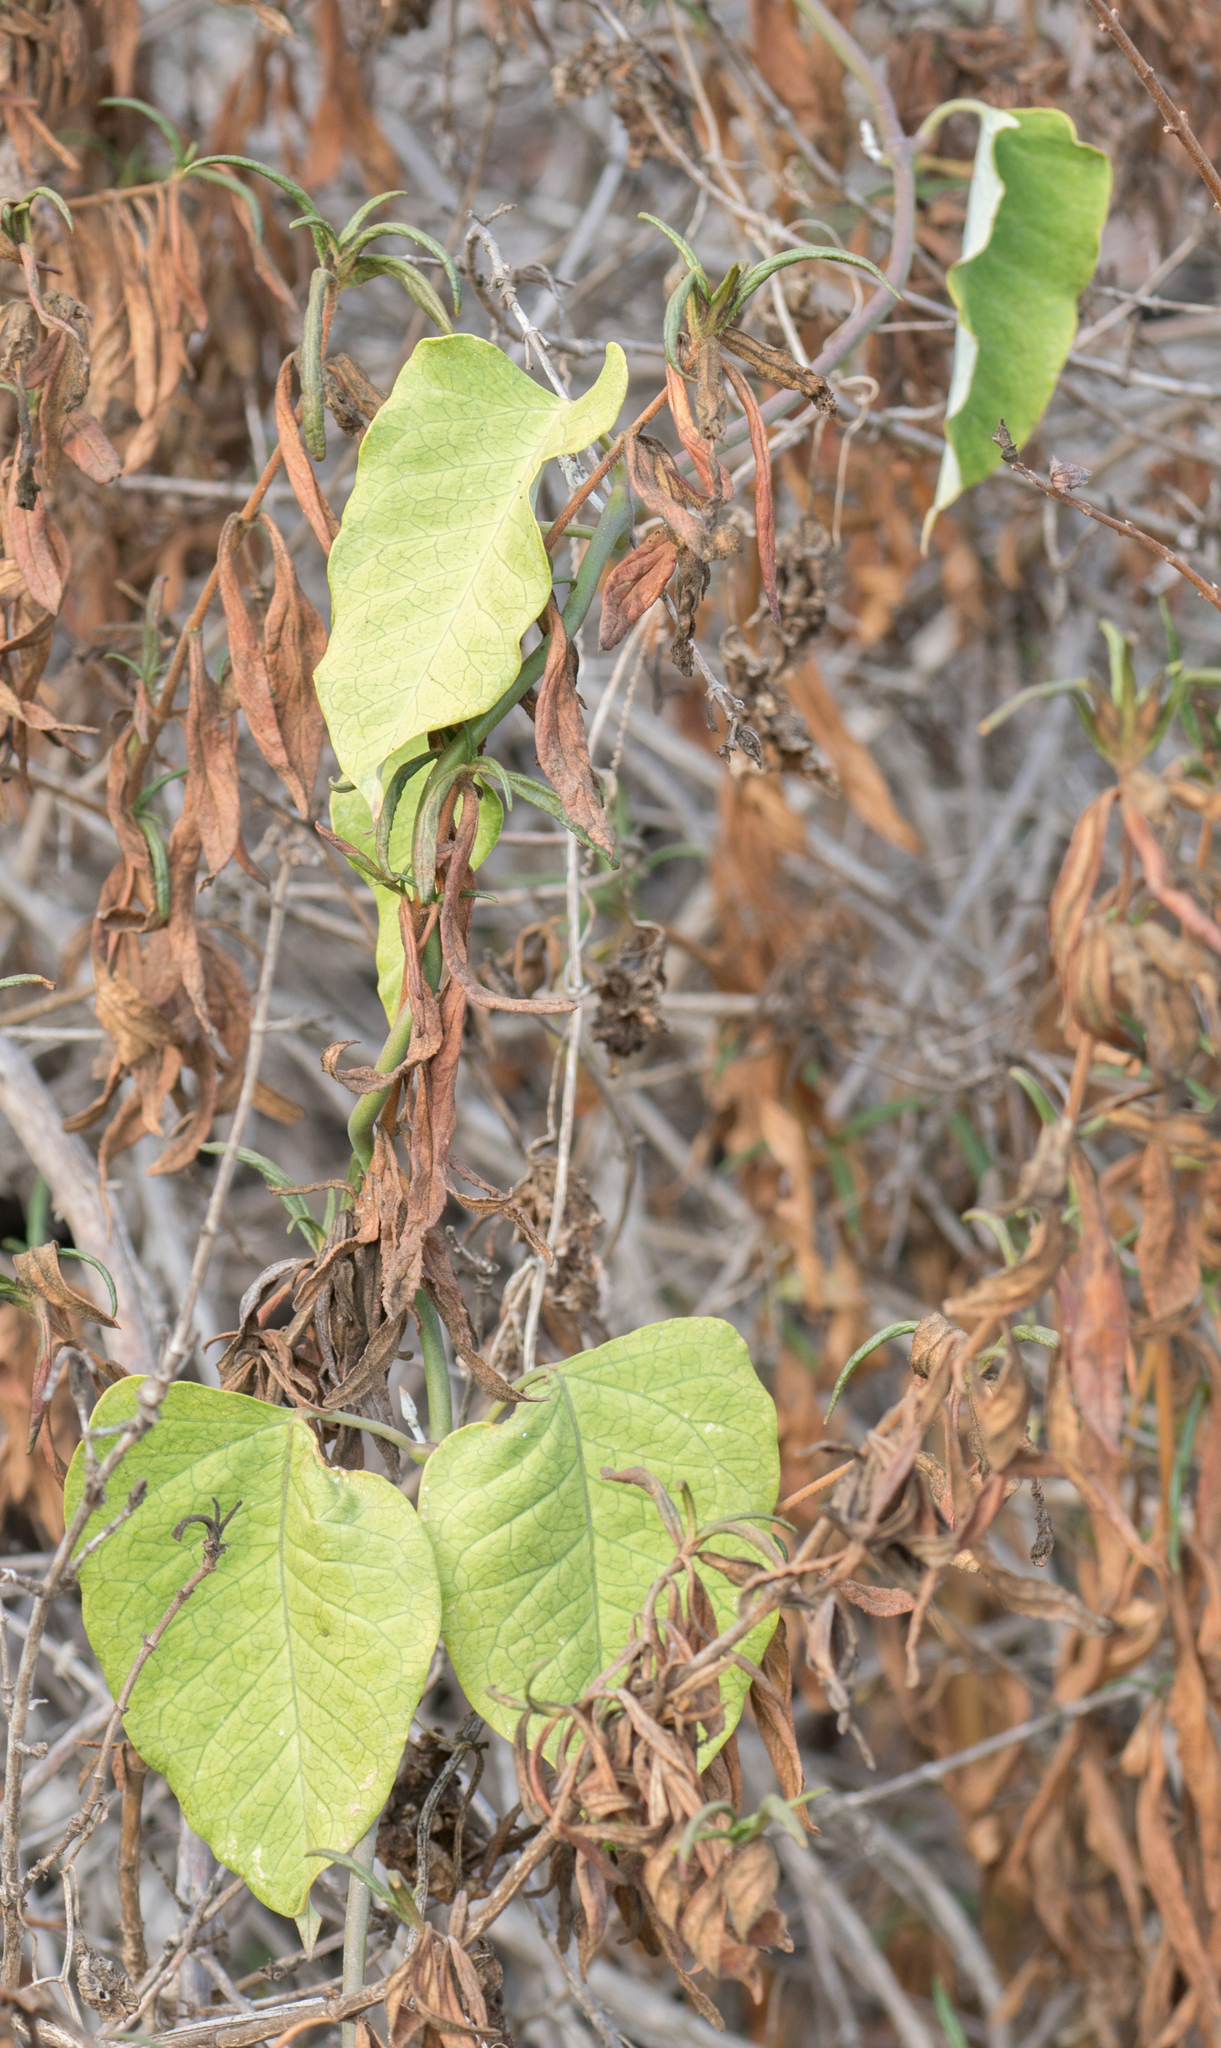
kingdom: Plantae
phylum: Tracheophyta
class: Magnoliopsida
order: Gentianales
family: Apocynaceae
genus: Araujia
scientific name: Araujia sericifera
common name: White bladderflower
